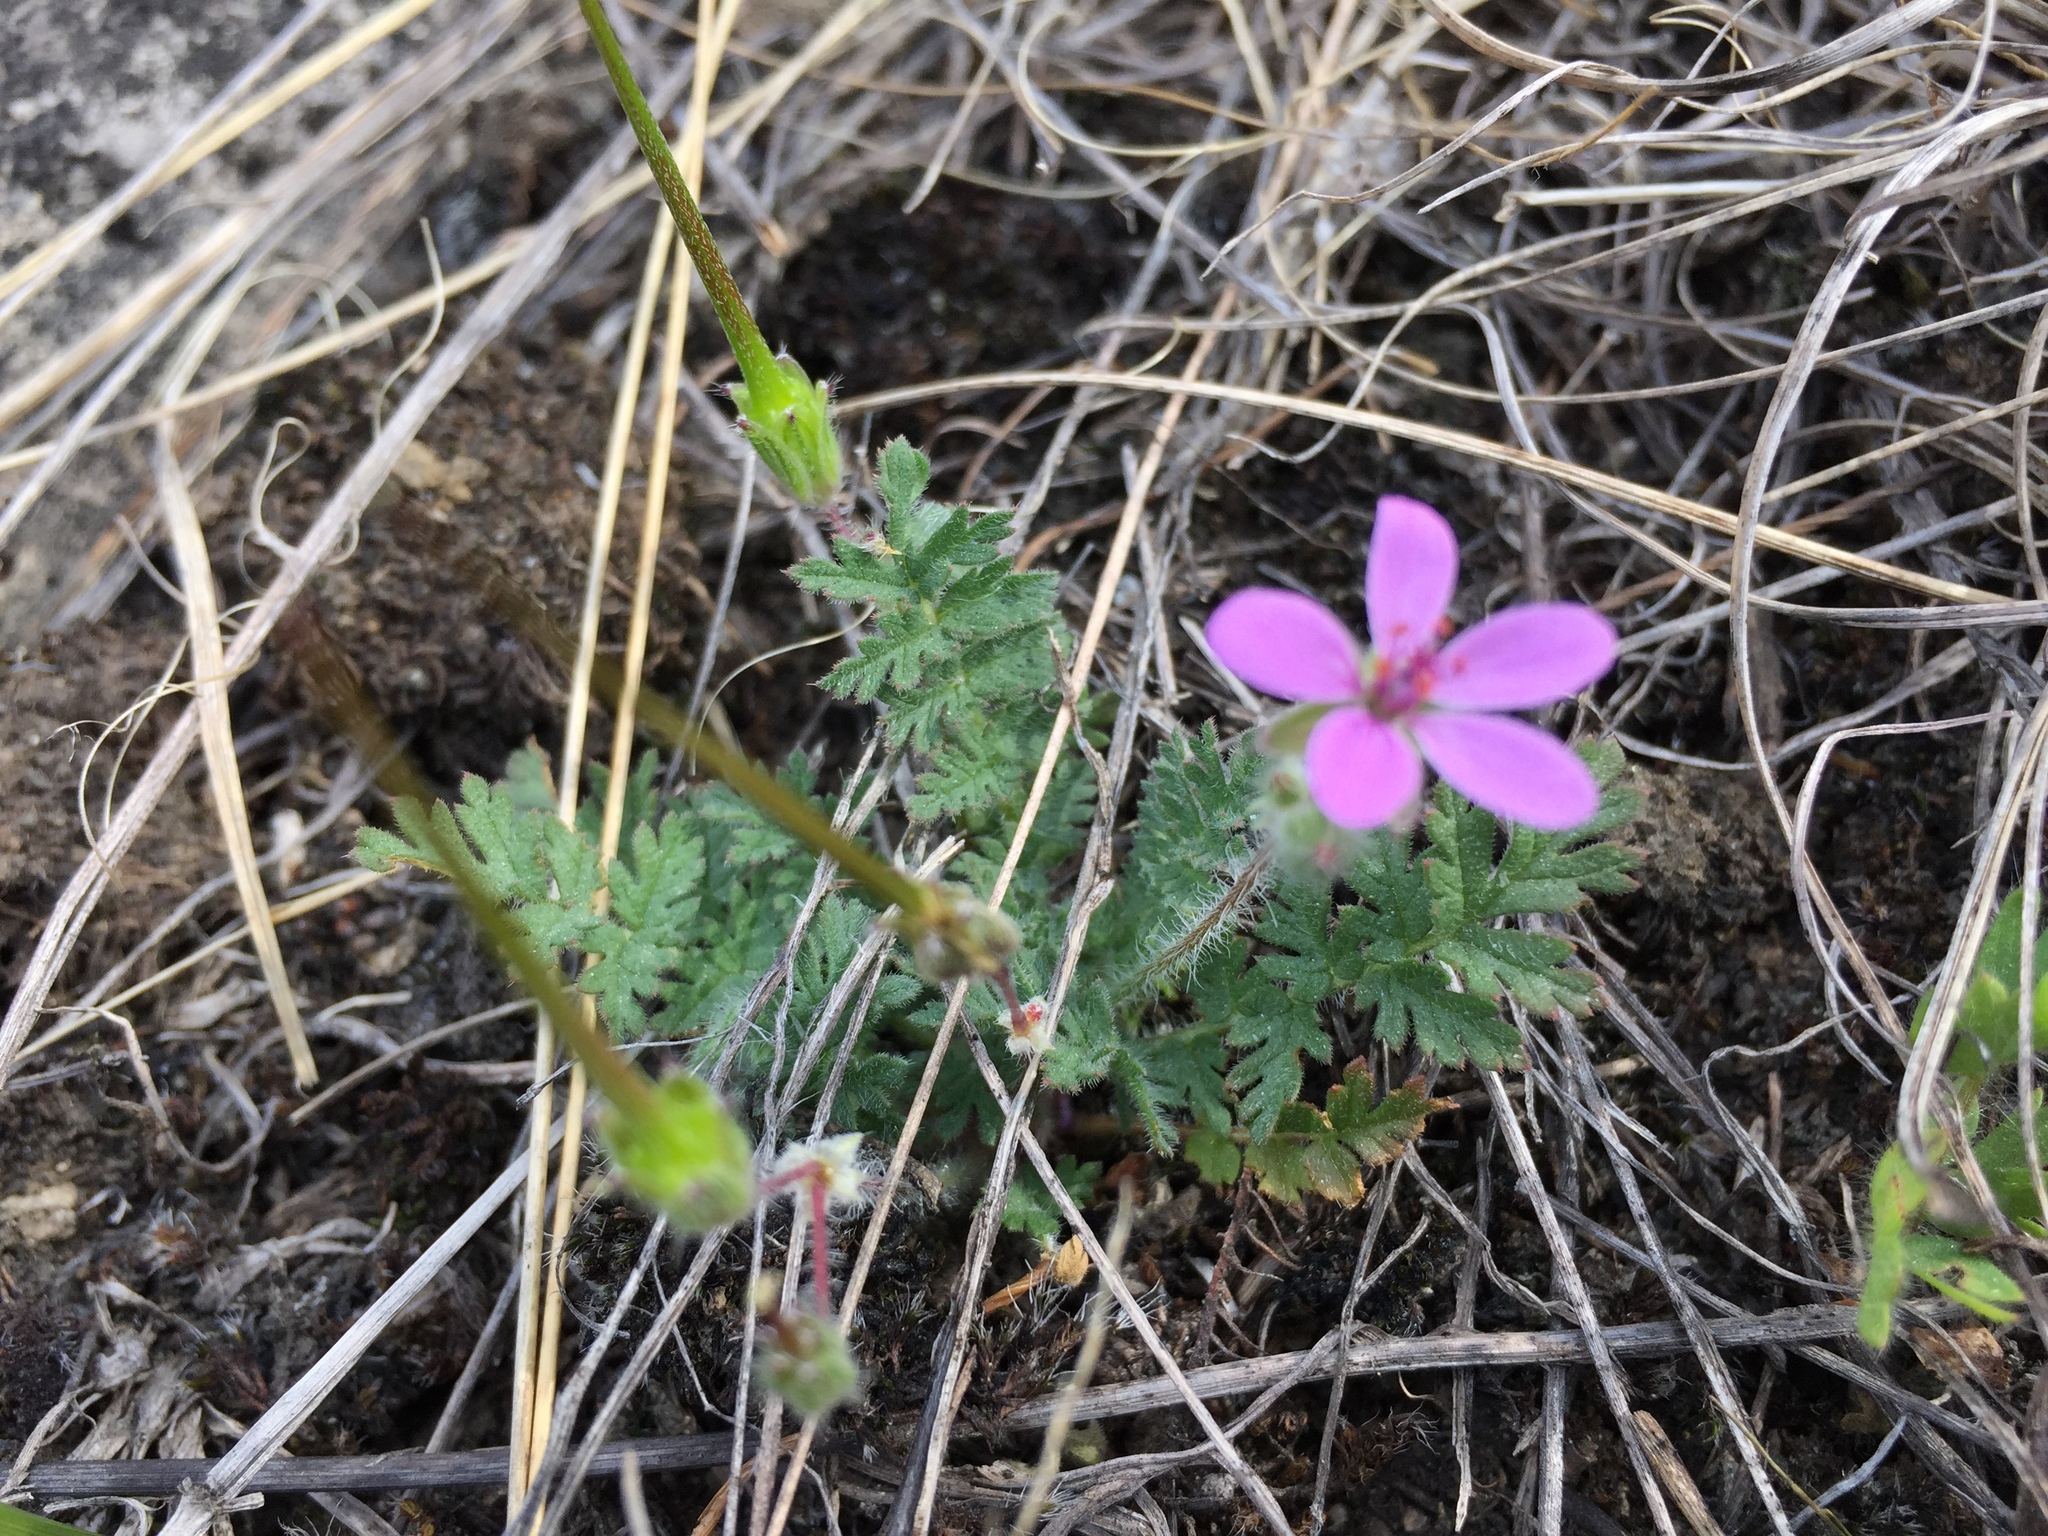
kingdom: Plantae
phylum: Tracheophyta
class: Magnoliopsida
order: Geraniales
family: Geraniaceae
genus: Erodium
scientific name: Erodium cicutarium
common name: Common stork's-bill
